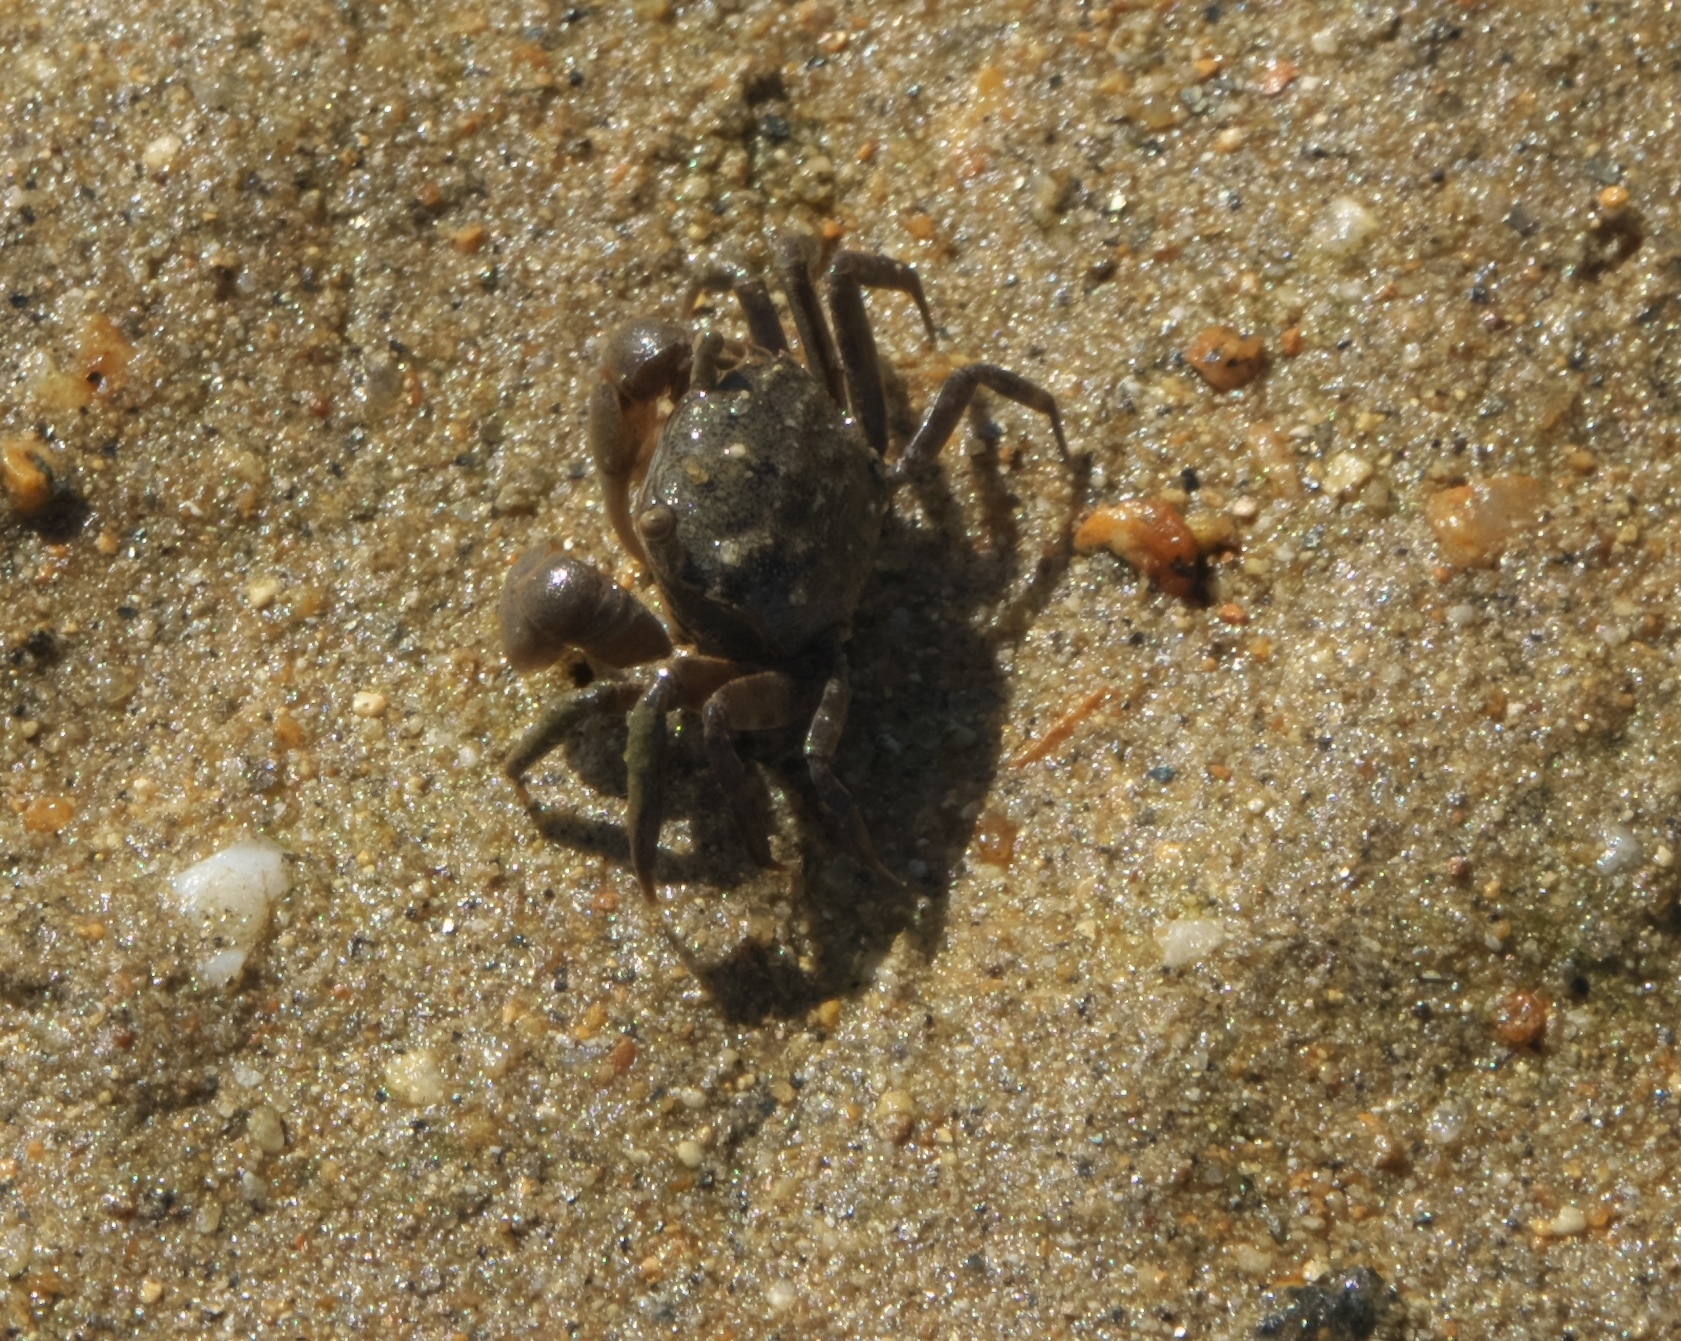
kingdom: Animalia
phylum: Arthropoda
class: Malacostraca
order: Decapoda
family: Varunidae
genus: Austrohelice
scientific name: Austrohelice crassa
